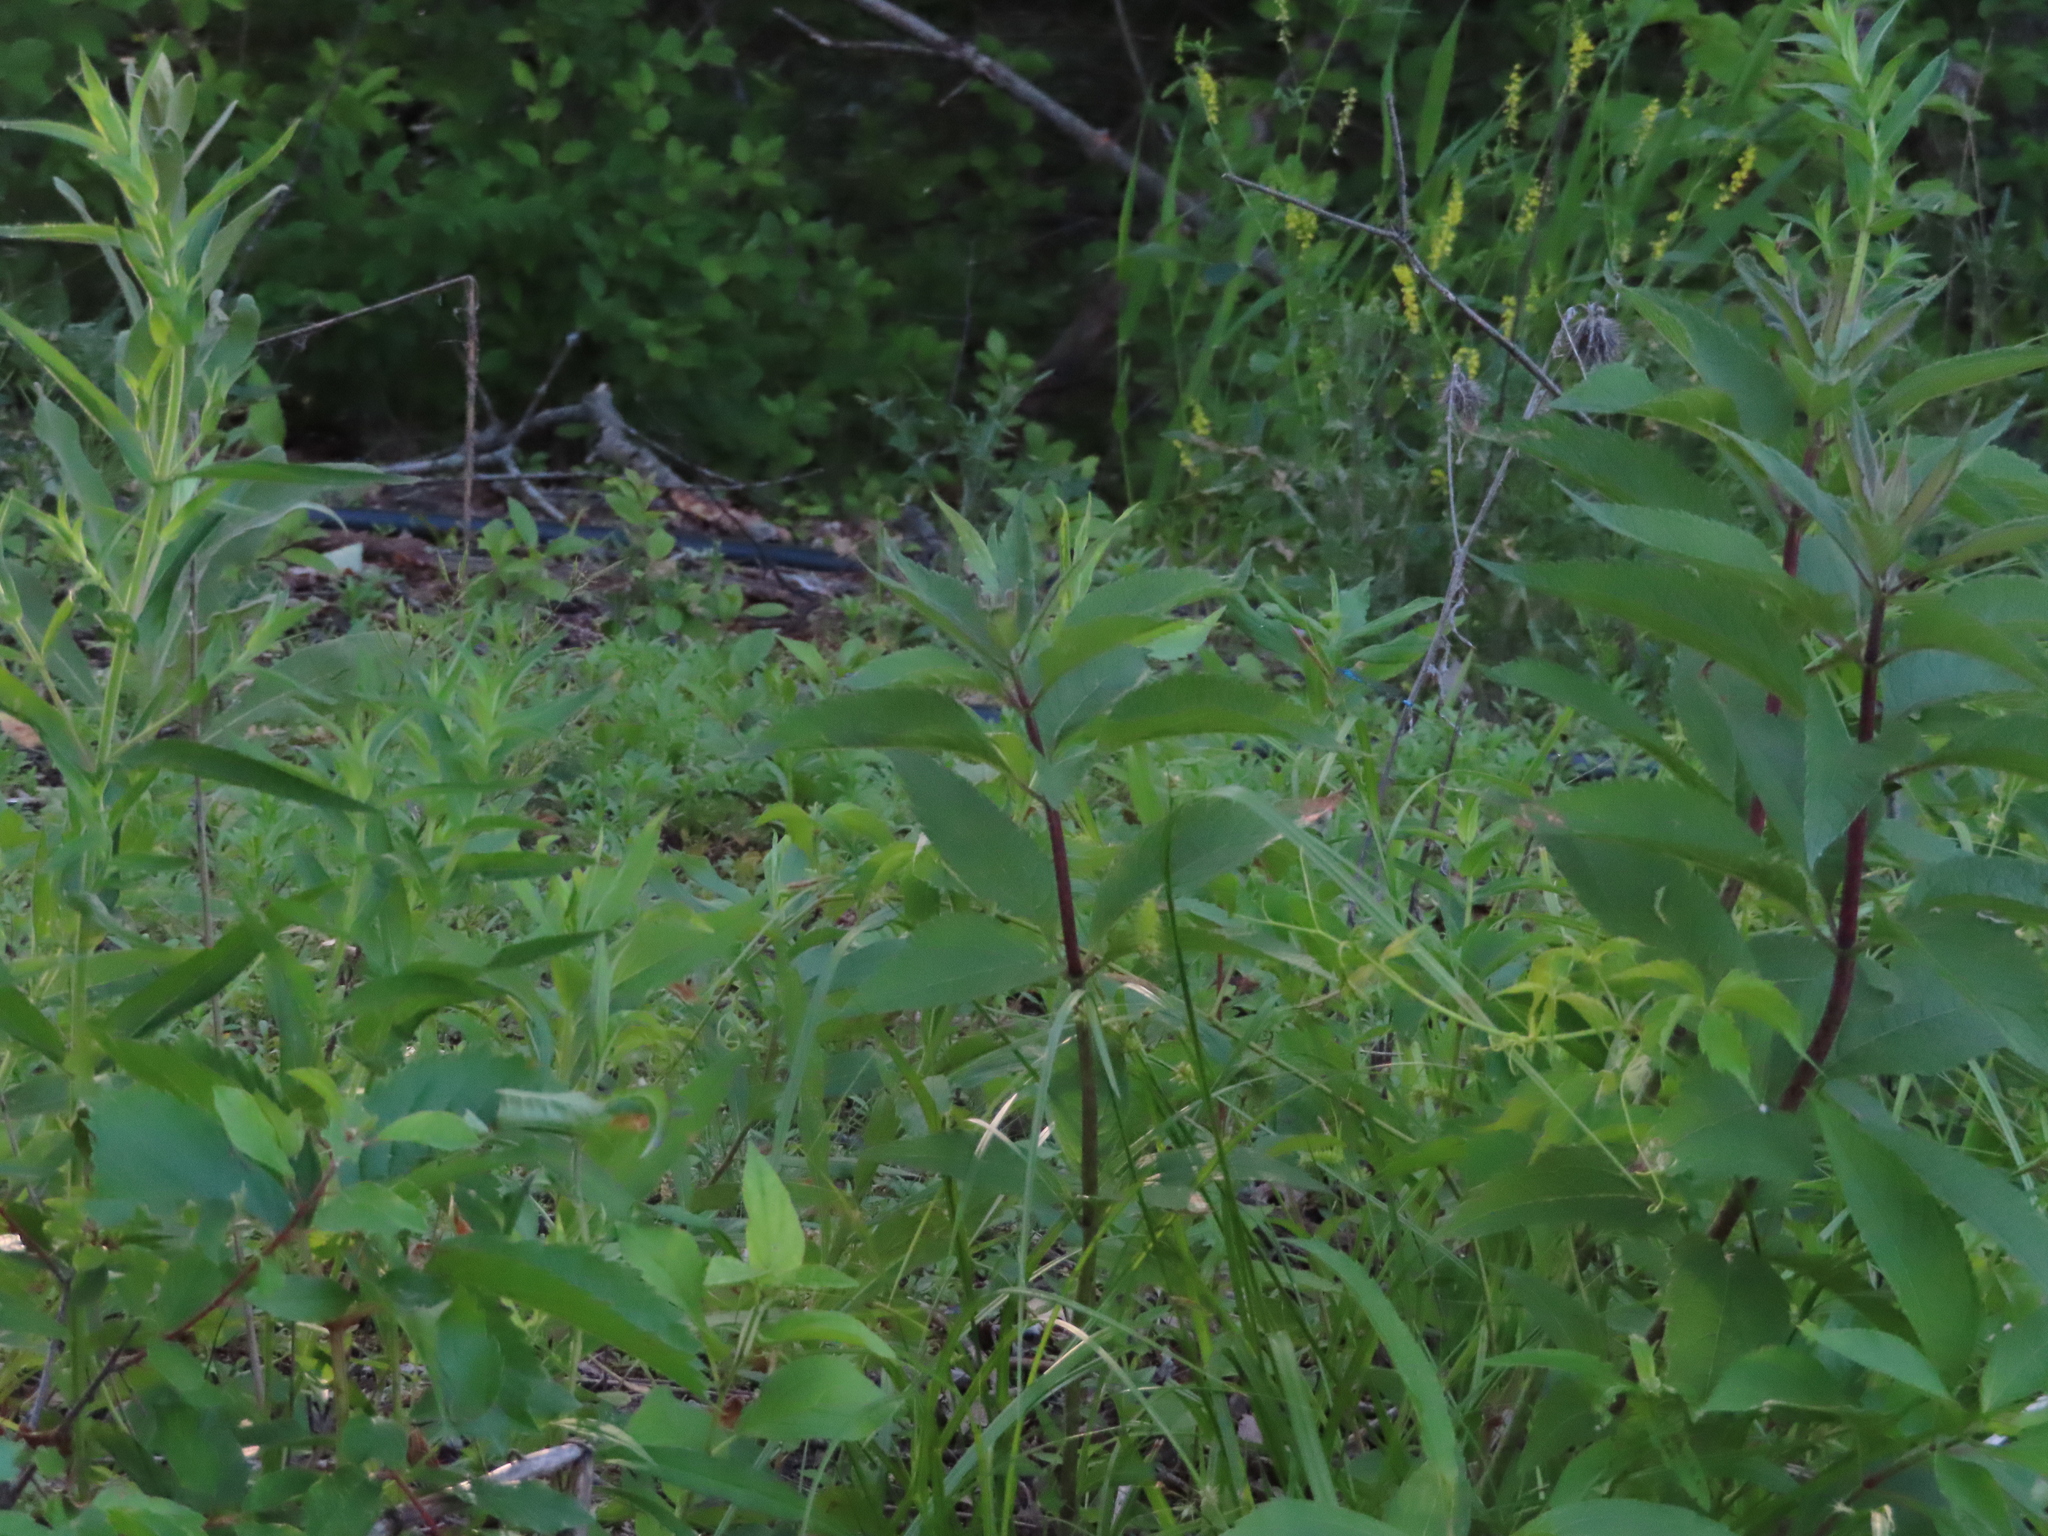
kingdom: Plantae
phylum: Tracheophyta
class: Magnoliopsida
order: Asterales
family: Asteraceae
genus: Eutrochium
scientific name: Eutrochium maculatum
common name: Spotted joe pye weed
